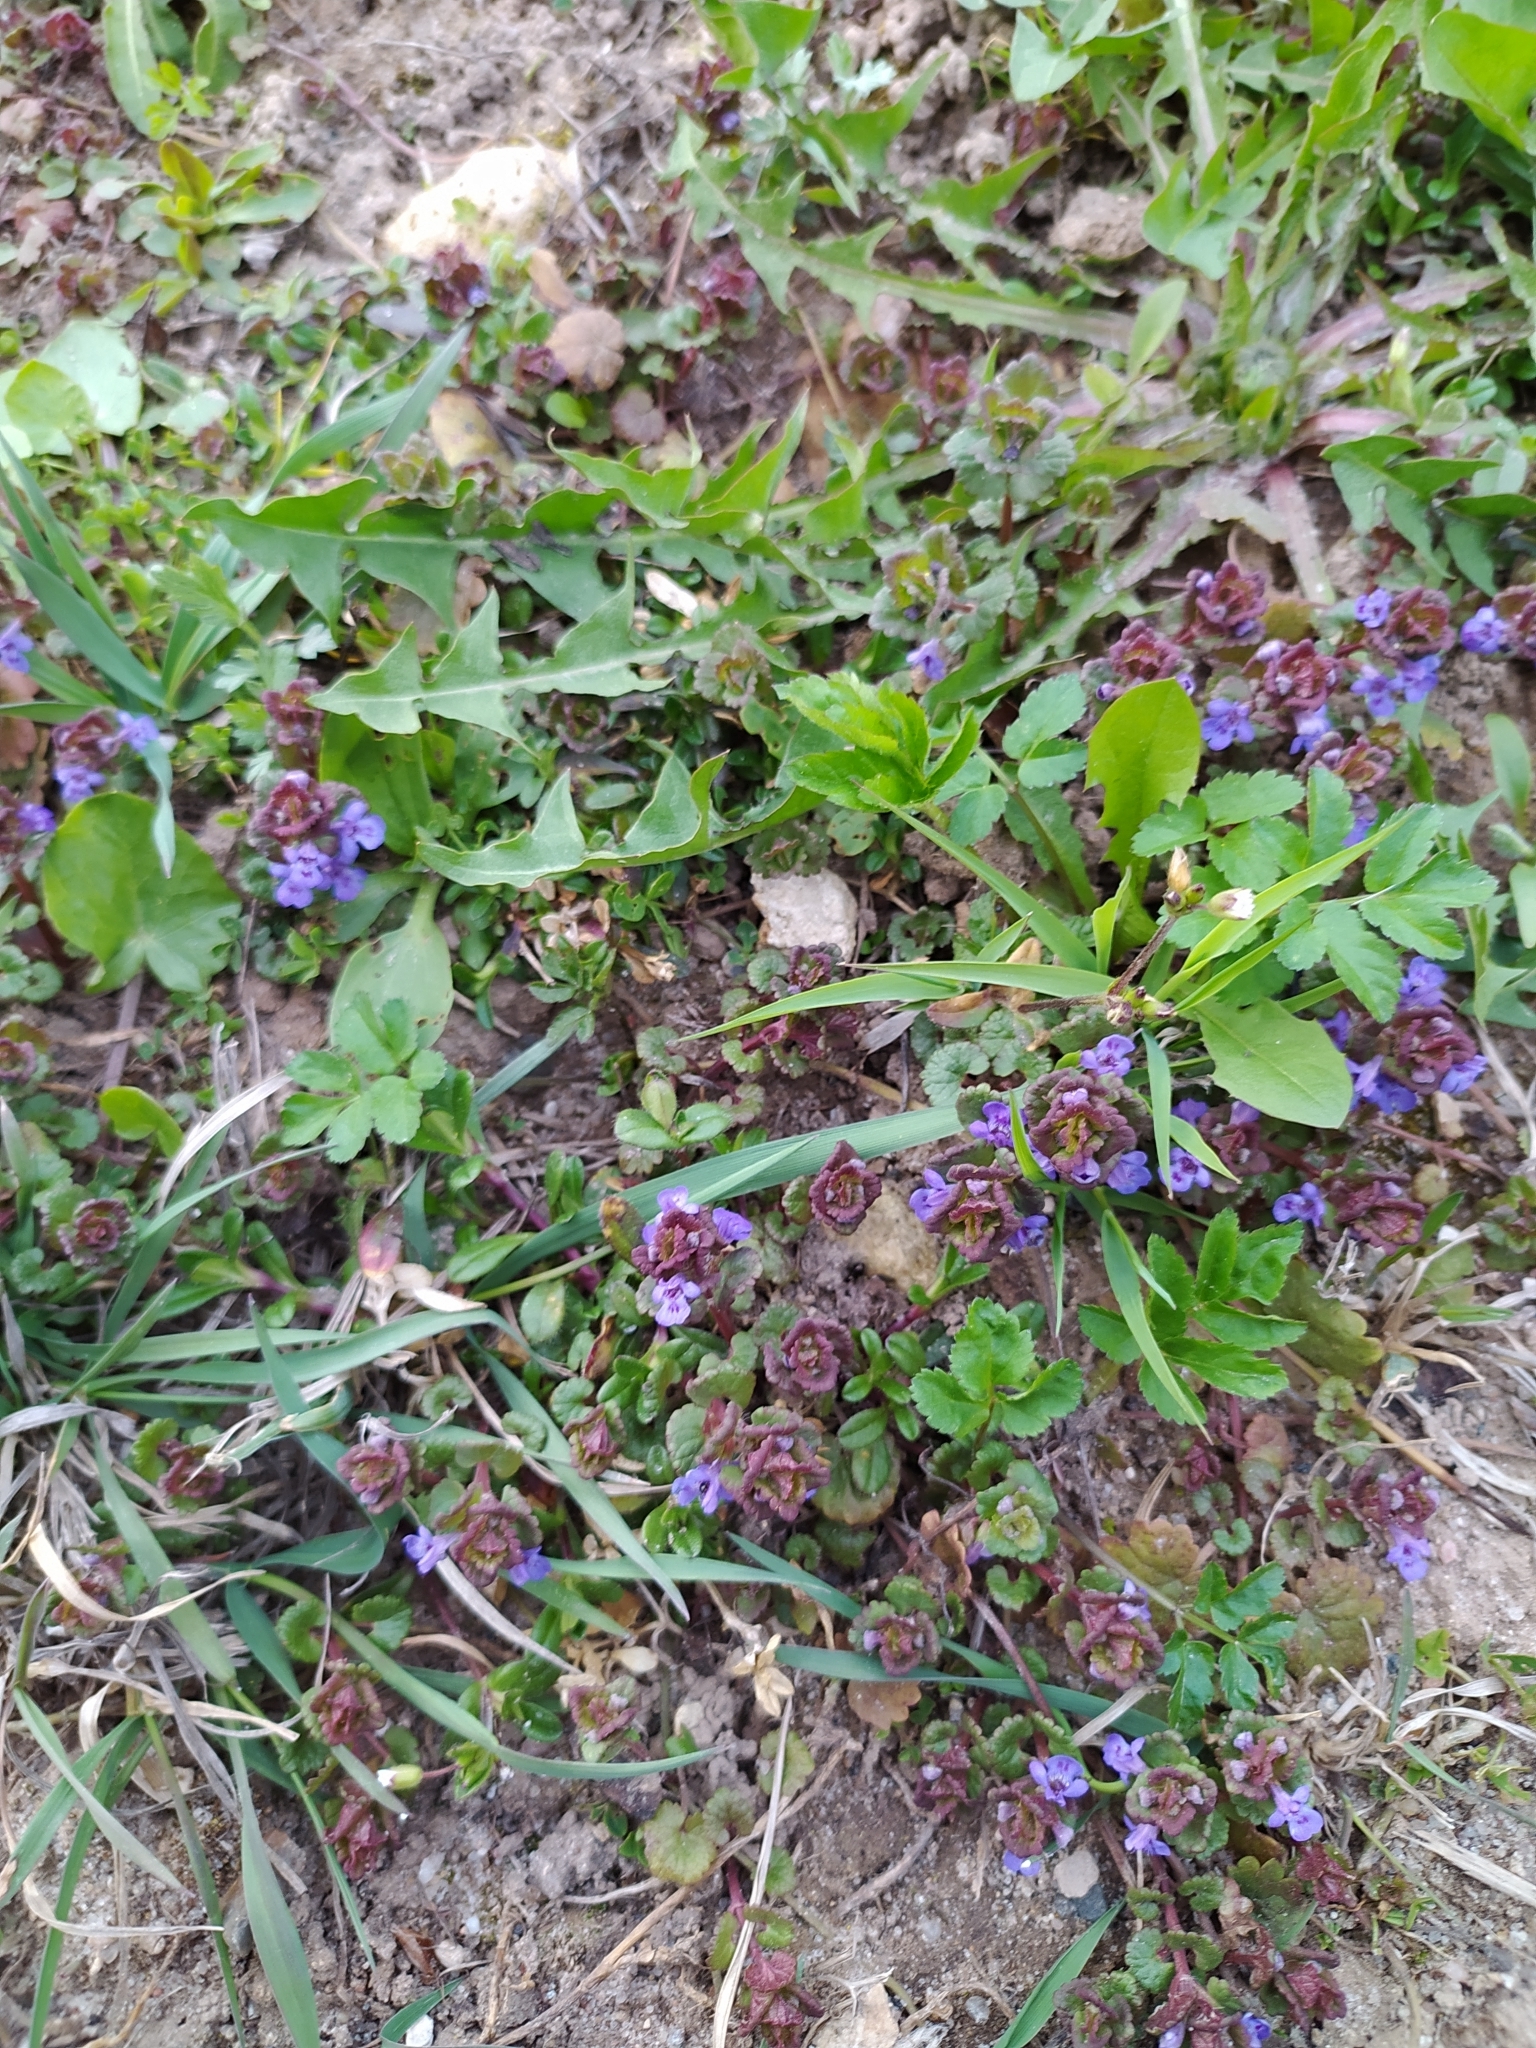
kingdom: Plantae
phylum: Tracheophyta
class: Magnoliopsida
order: Lamiales
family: Lamiaceae
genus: Glechoma
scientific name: Glechoma hederacea
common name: Ground ivy
